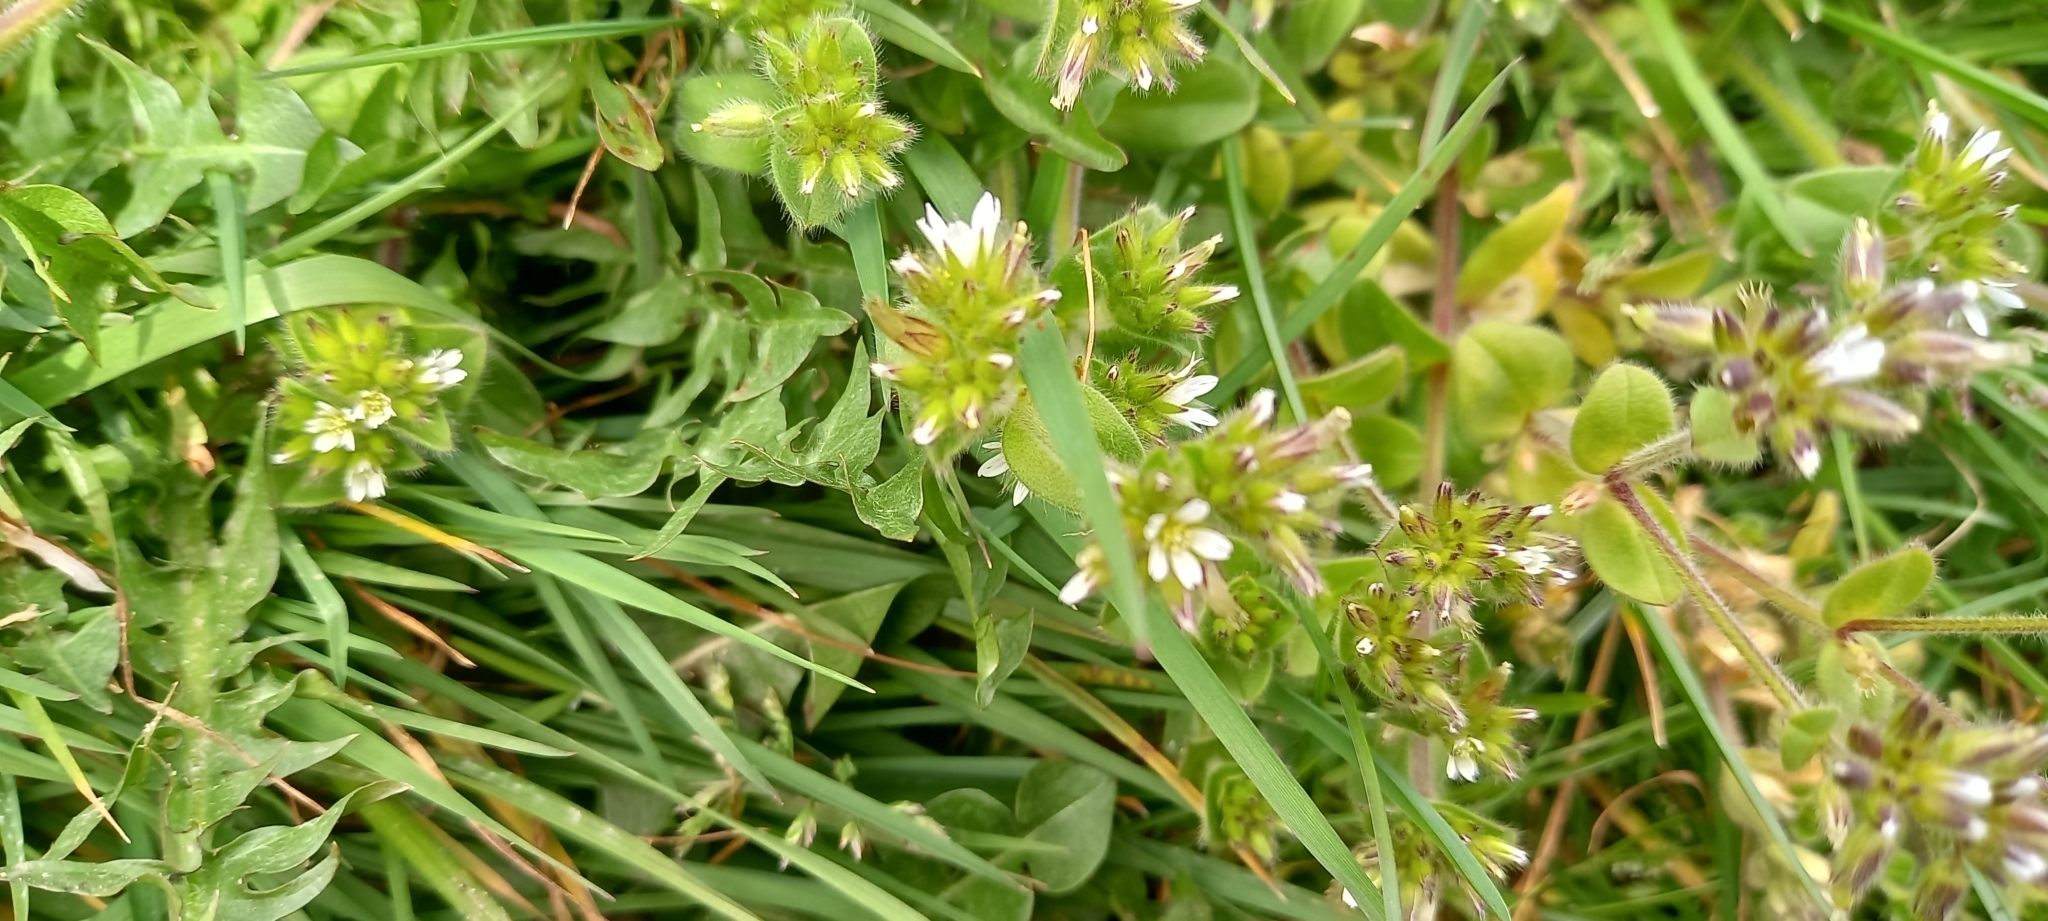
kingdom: Plantae
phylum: Tracheophyta
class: Magnoliopsida
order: Caryophyllales
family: Caryophyllaceae
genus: Cerastium
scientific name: Cerastium glomeratum
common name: Sticky chickweed
